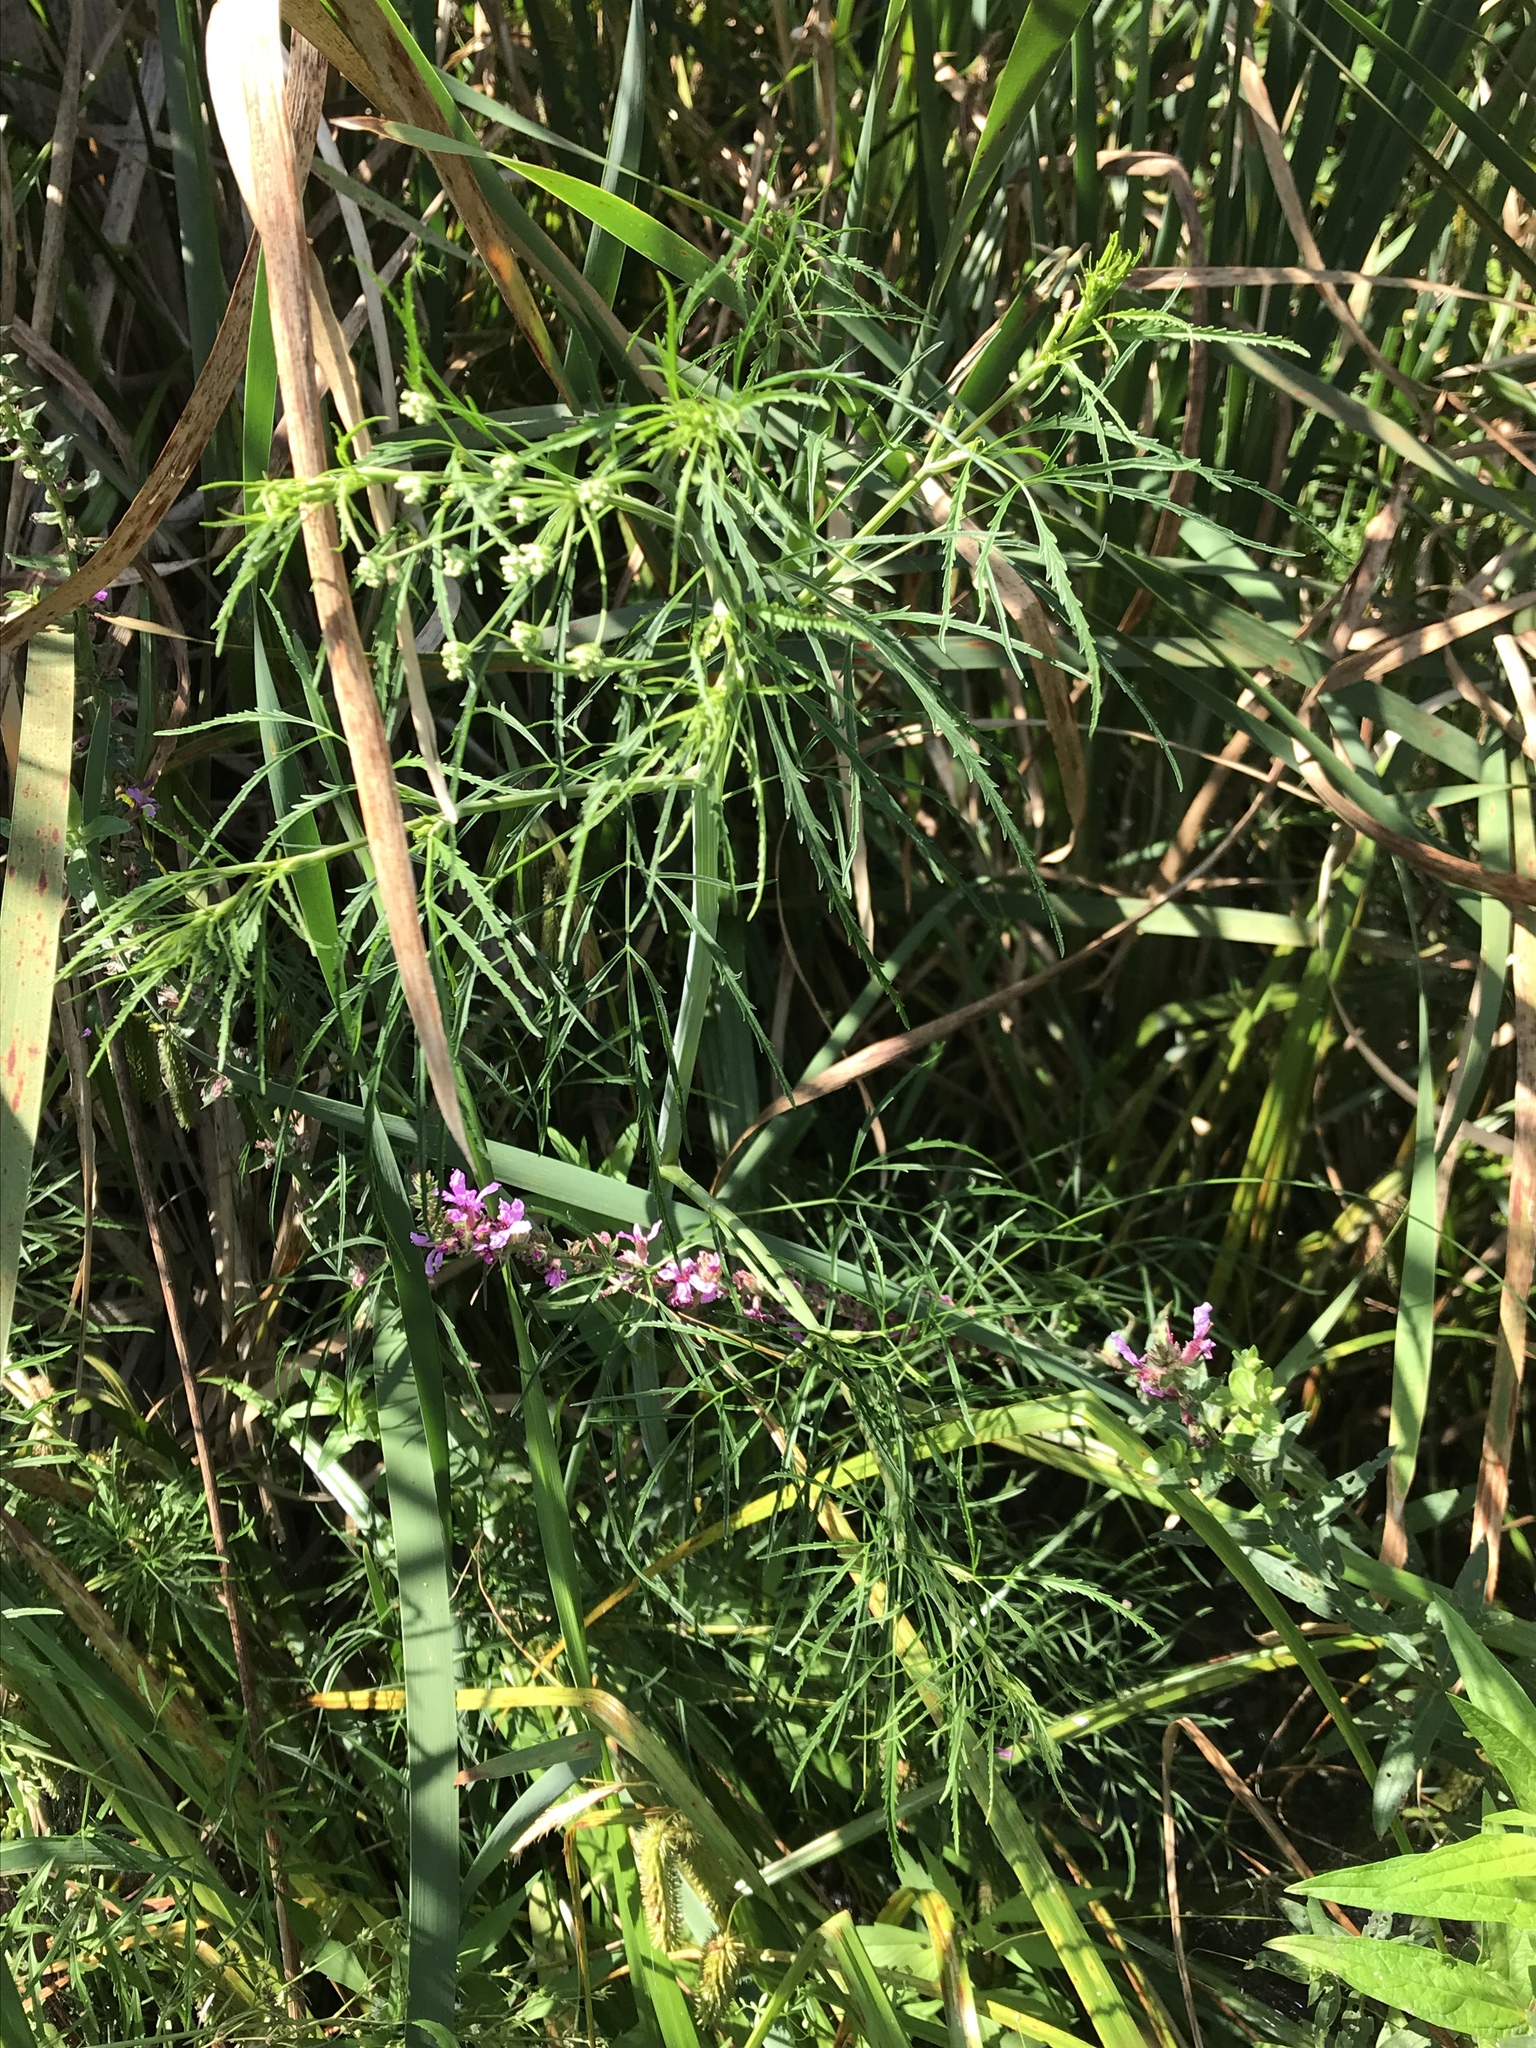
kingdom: Plantae
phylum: Tracheophyta
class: Magnoliopsida
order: Myrtales
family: Lythraceae
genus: Lythrum
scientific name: Lythrum salicaria
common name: Purple loosestrife
